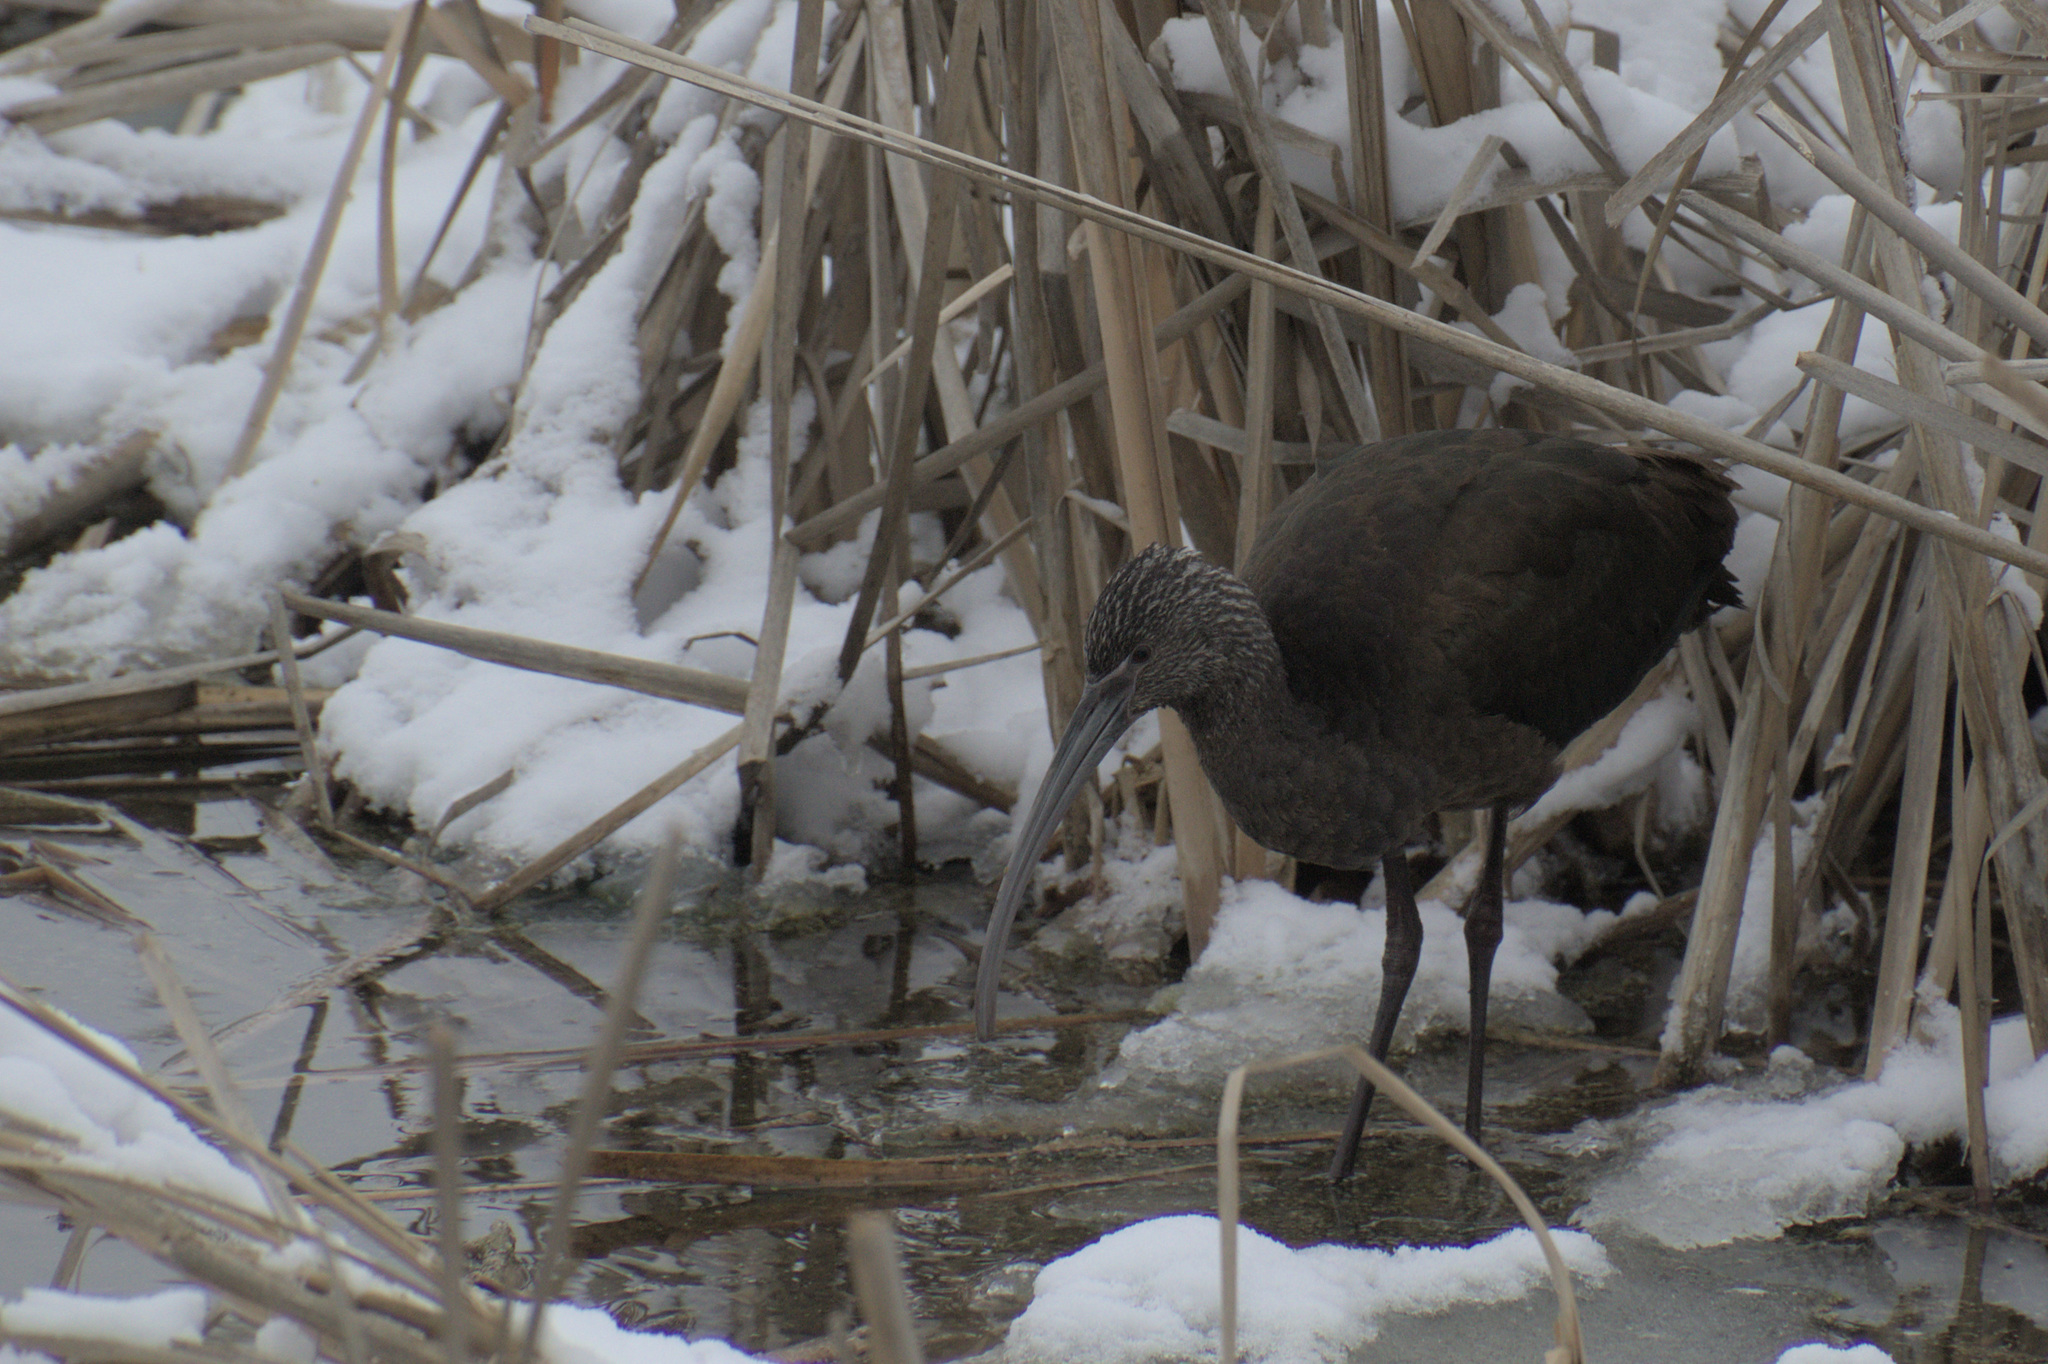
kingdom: Animalia
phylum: Chordata
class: Aves
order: Pelecaniformes
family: Threskiornithidae
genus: Plegadis
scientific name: Plegadis chihi
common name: White-faced ibis
